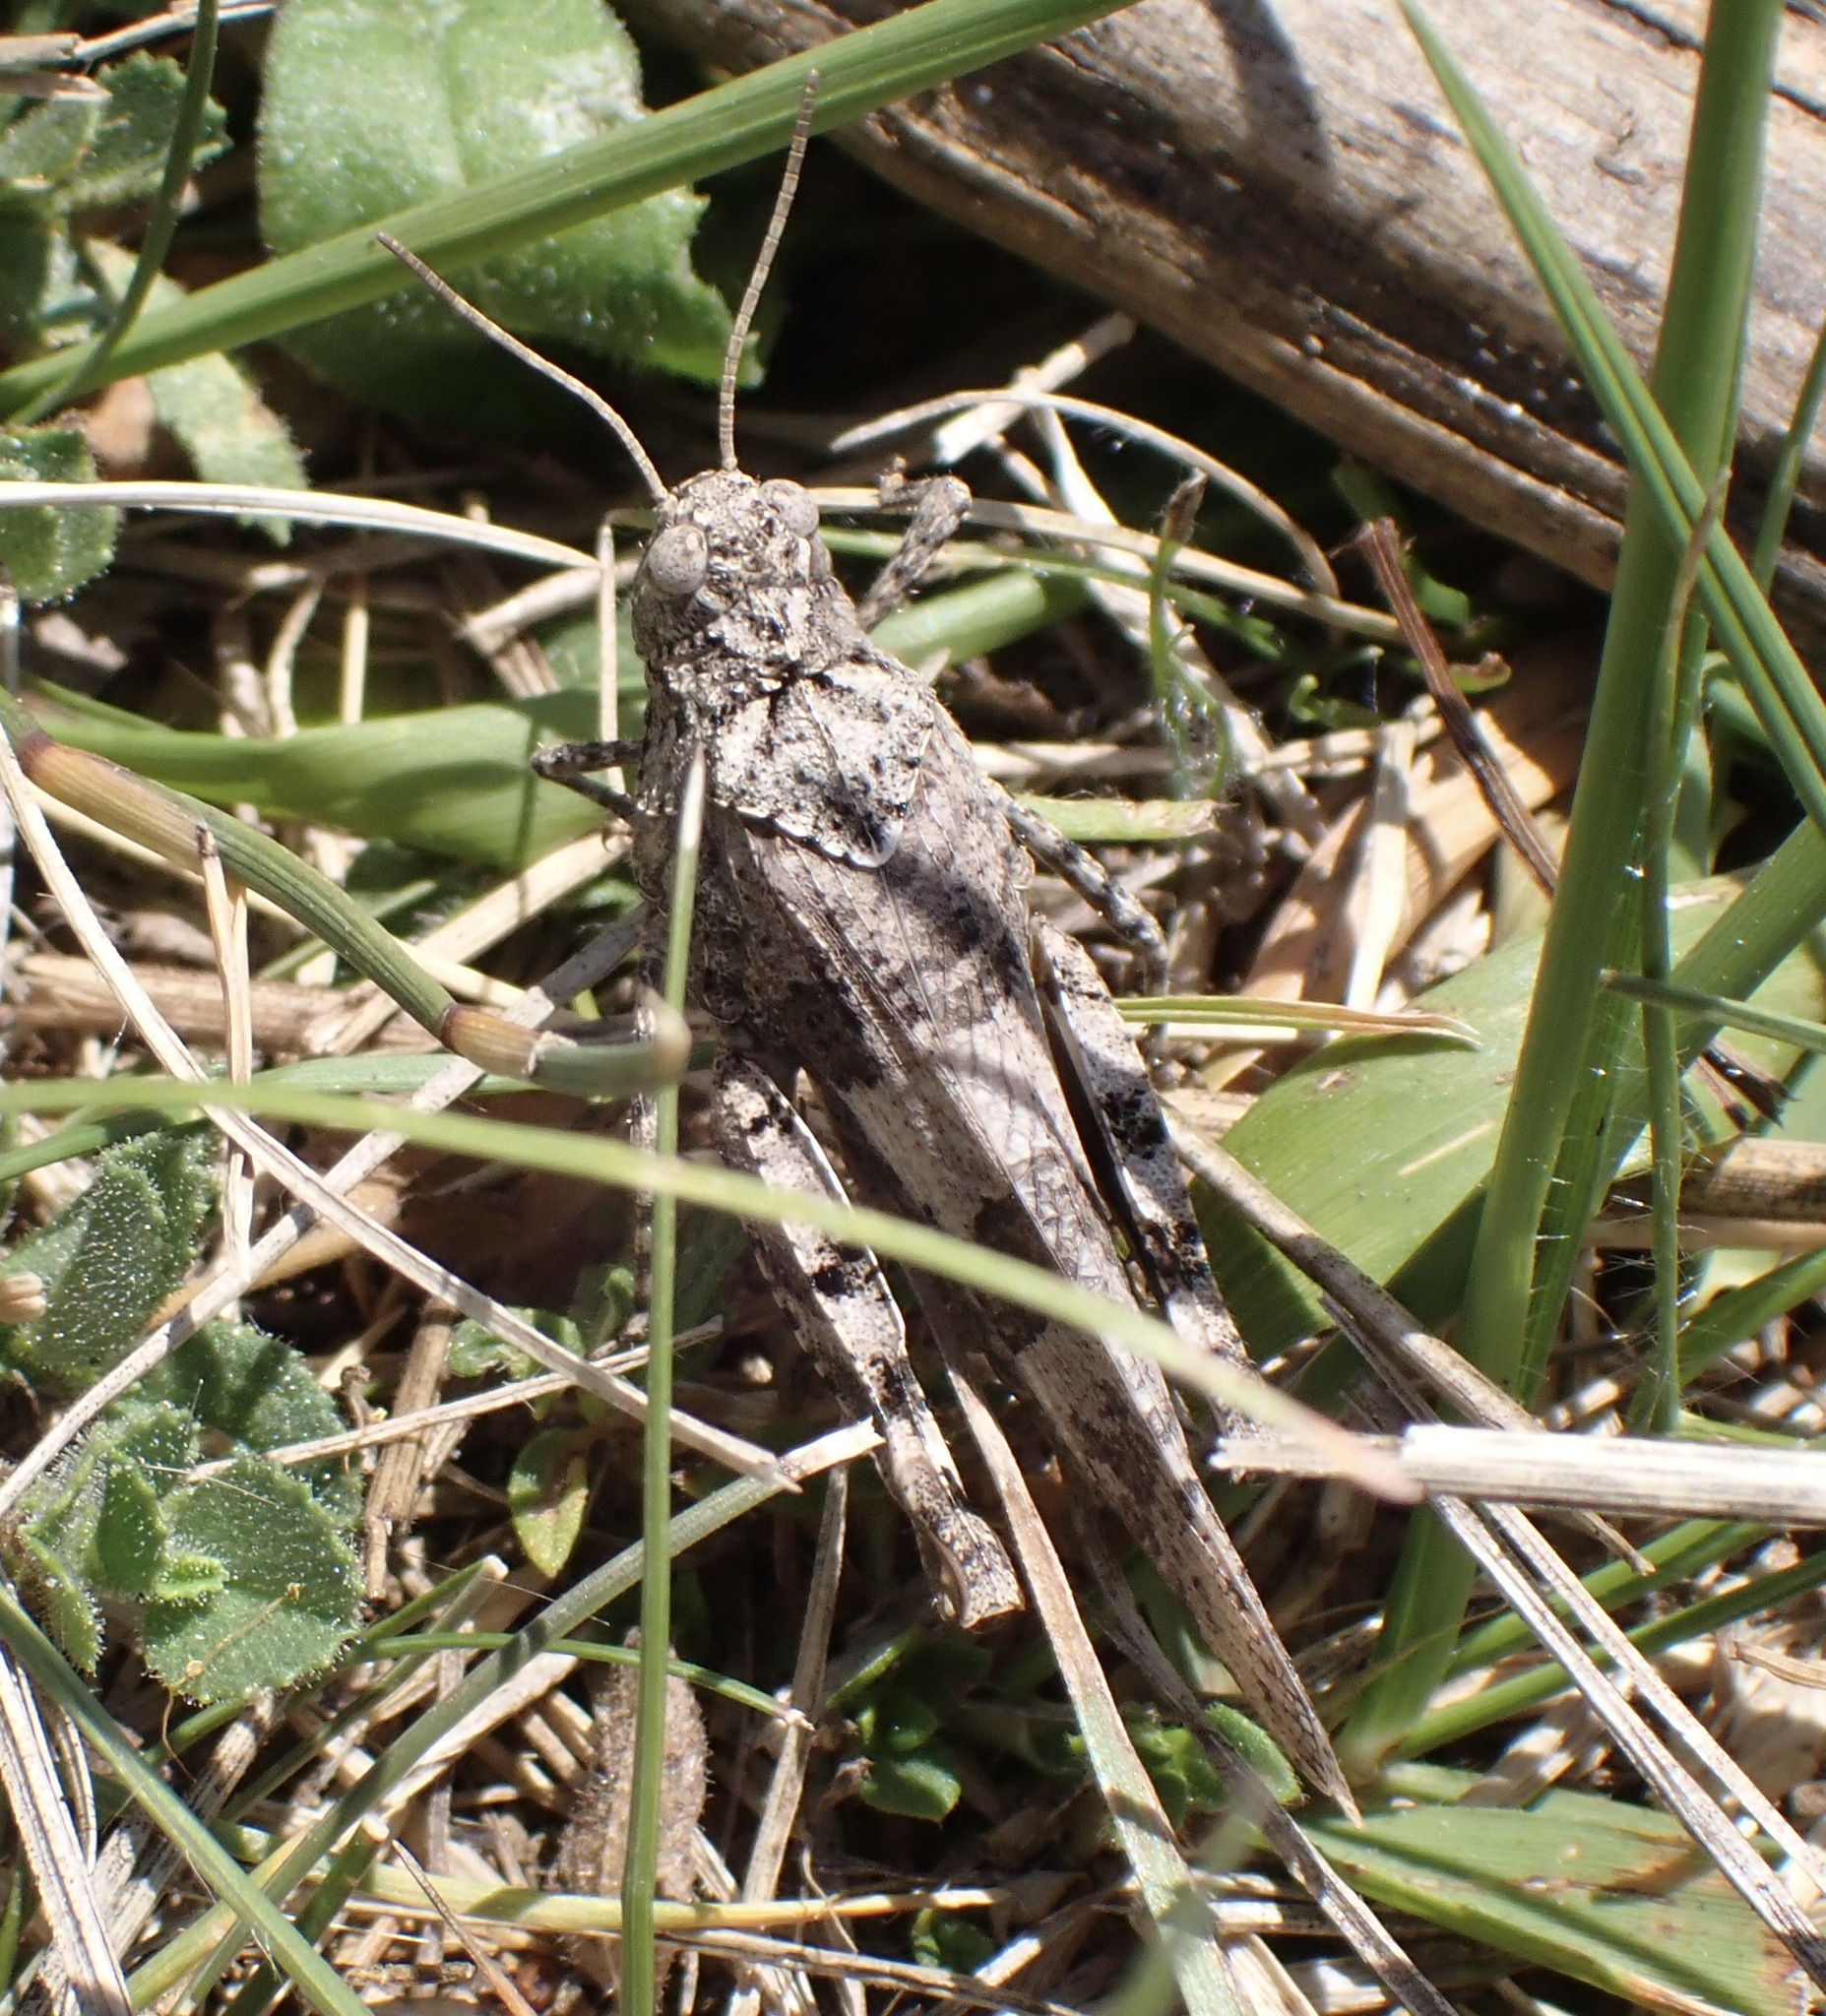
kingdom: Animalia
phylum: Arthropoda
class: Insecta
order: Orthoptera
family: Acrididae
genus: Oedipoda
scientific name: Oedipoda caerulescens
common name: Blue-winged grasshopper
